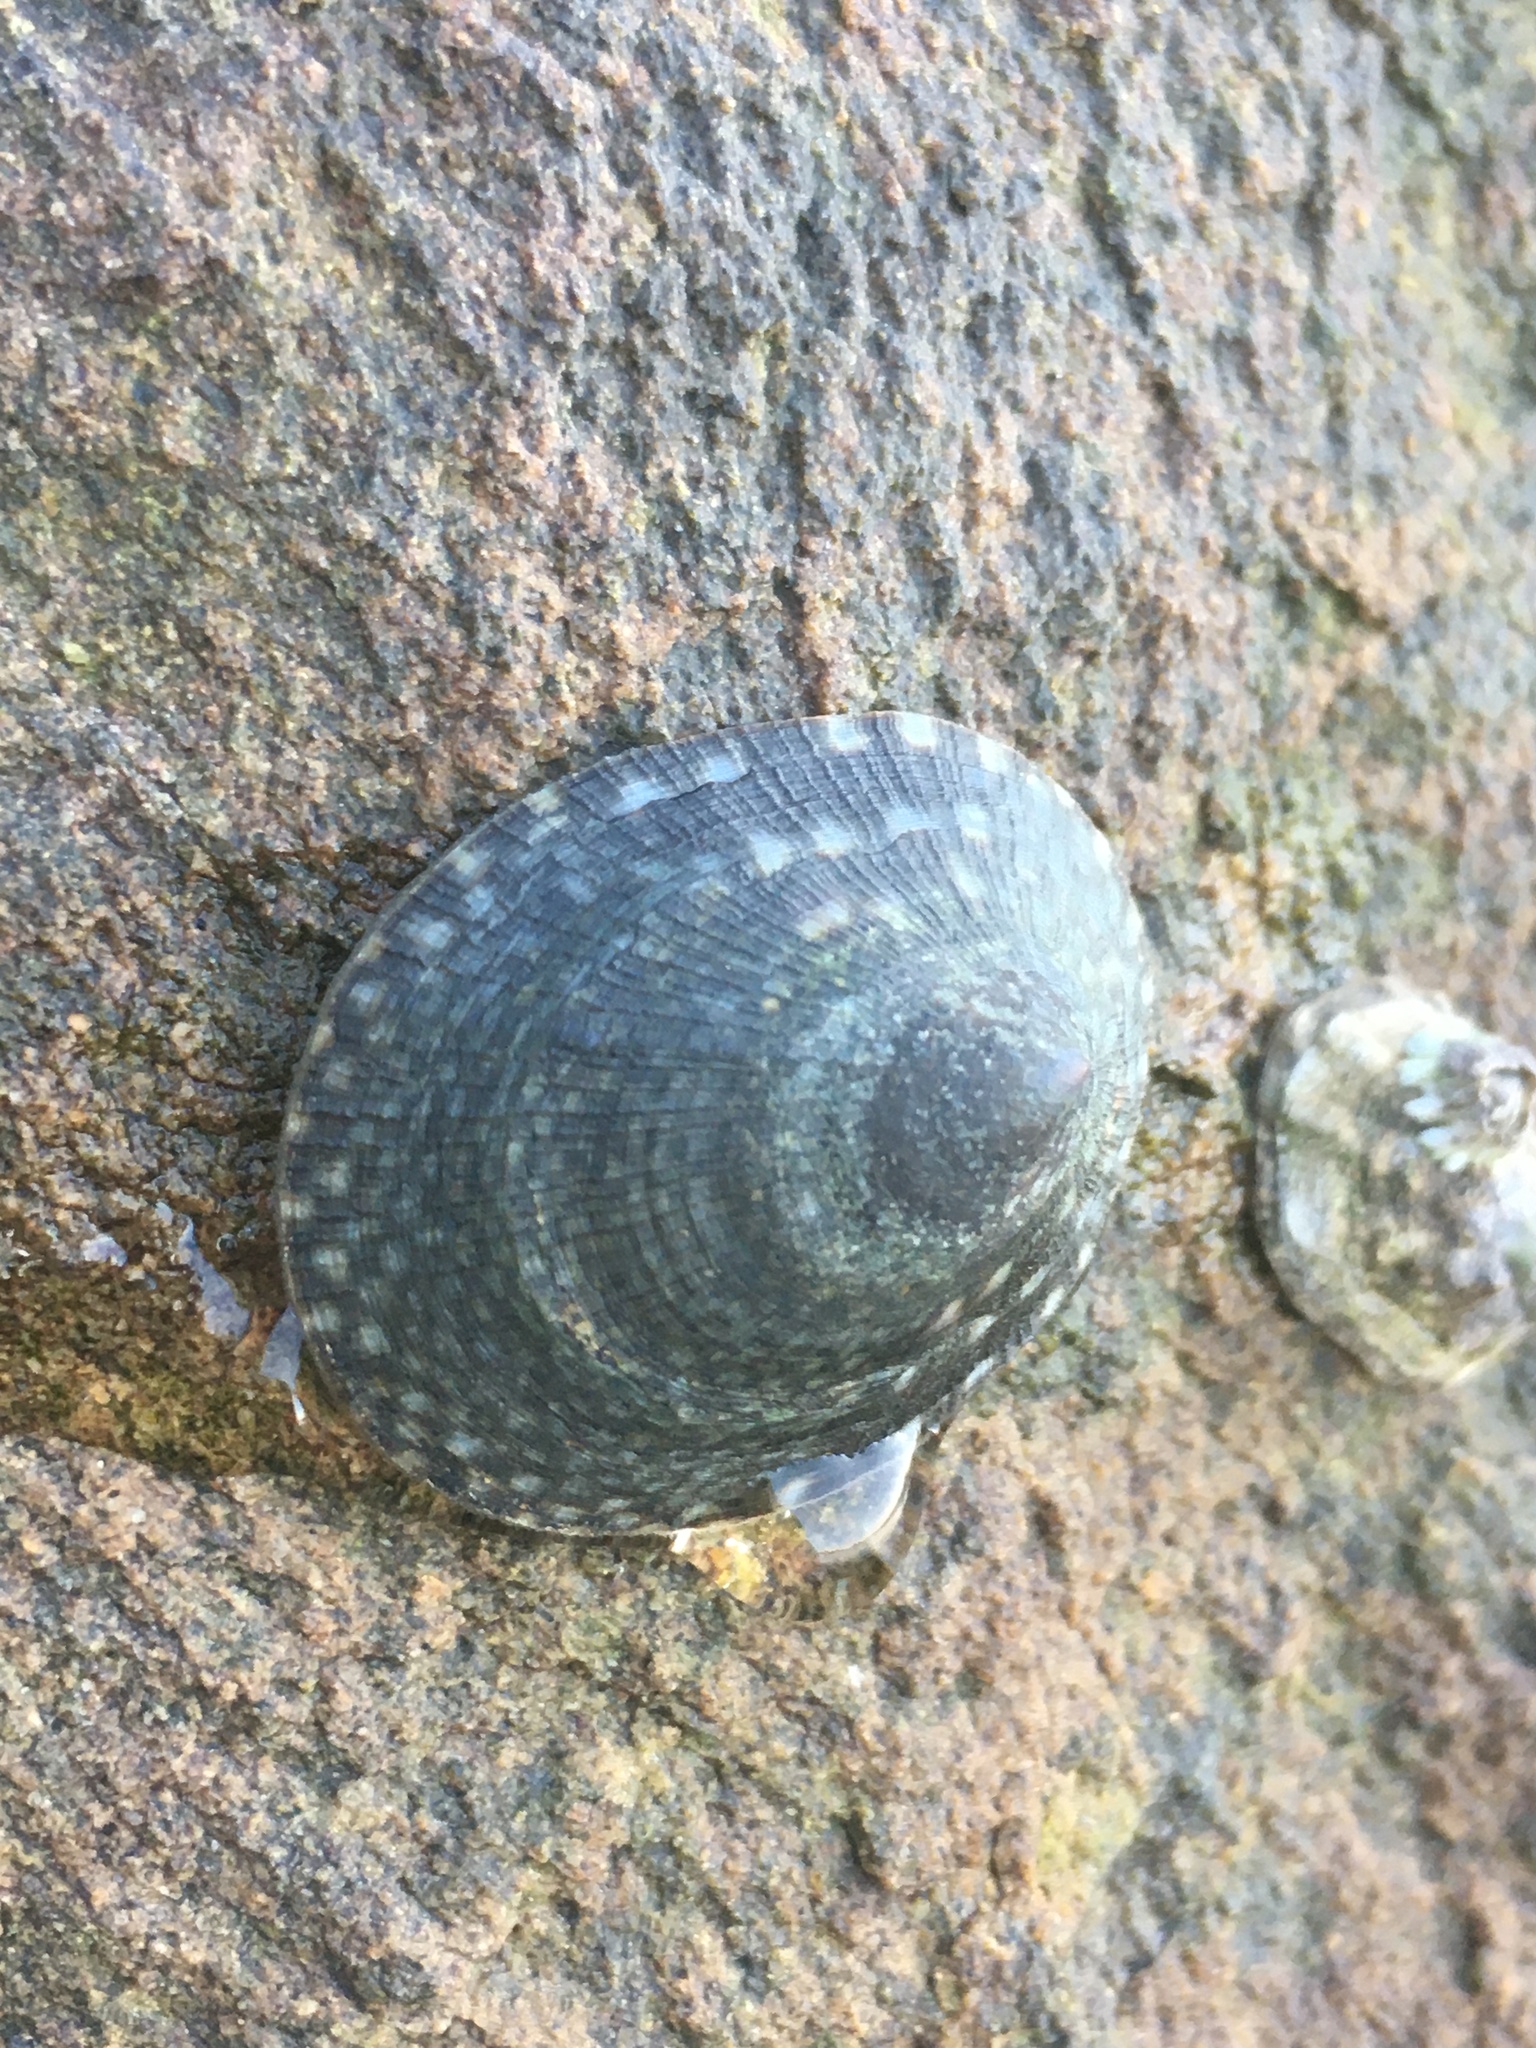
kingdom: Animalia
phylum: Mollusca
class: Gastropoda
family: Lottiidae
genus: Lottia
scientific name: Lottia limatula
